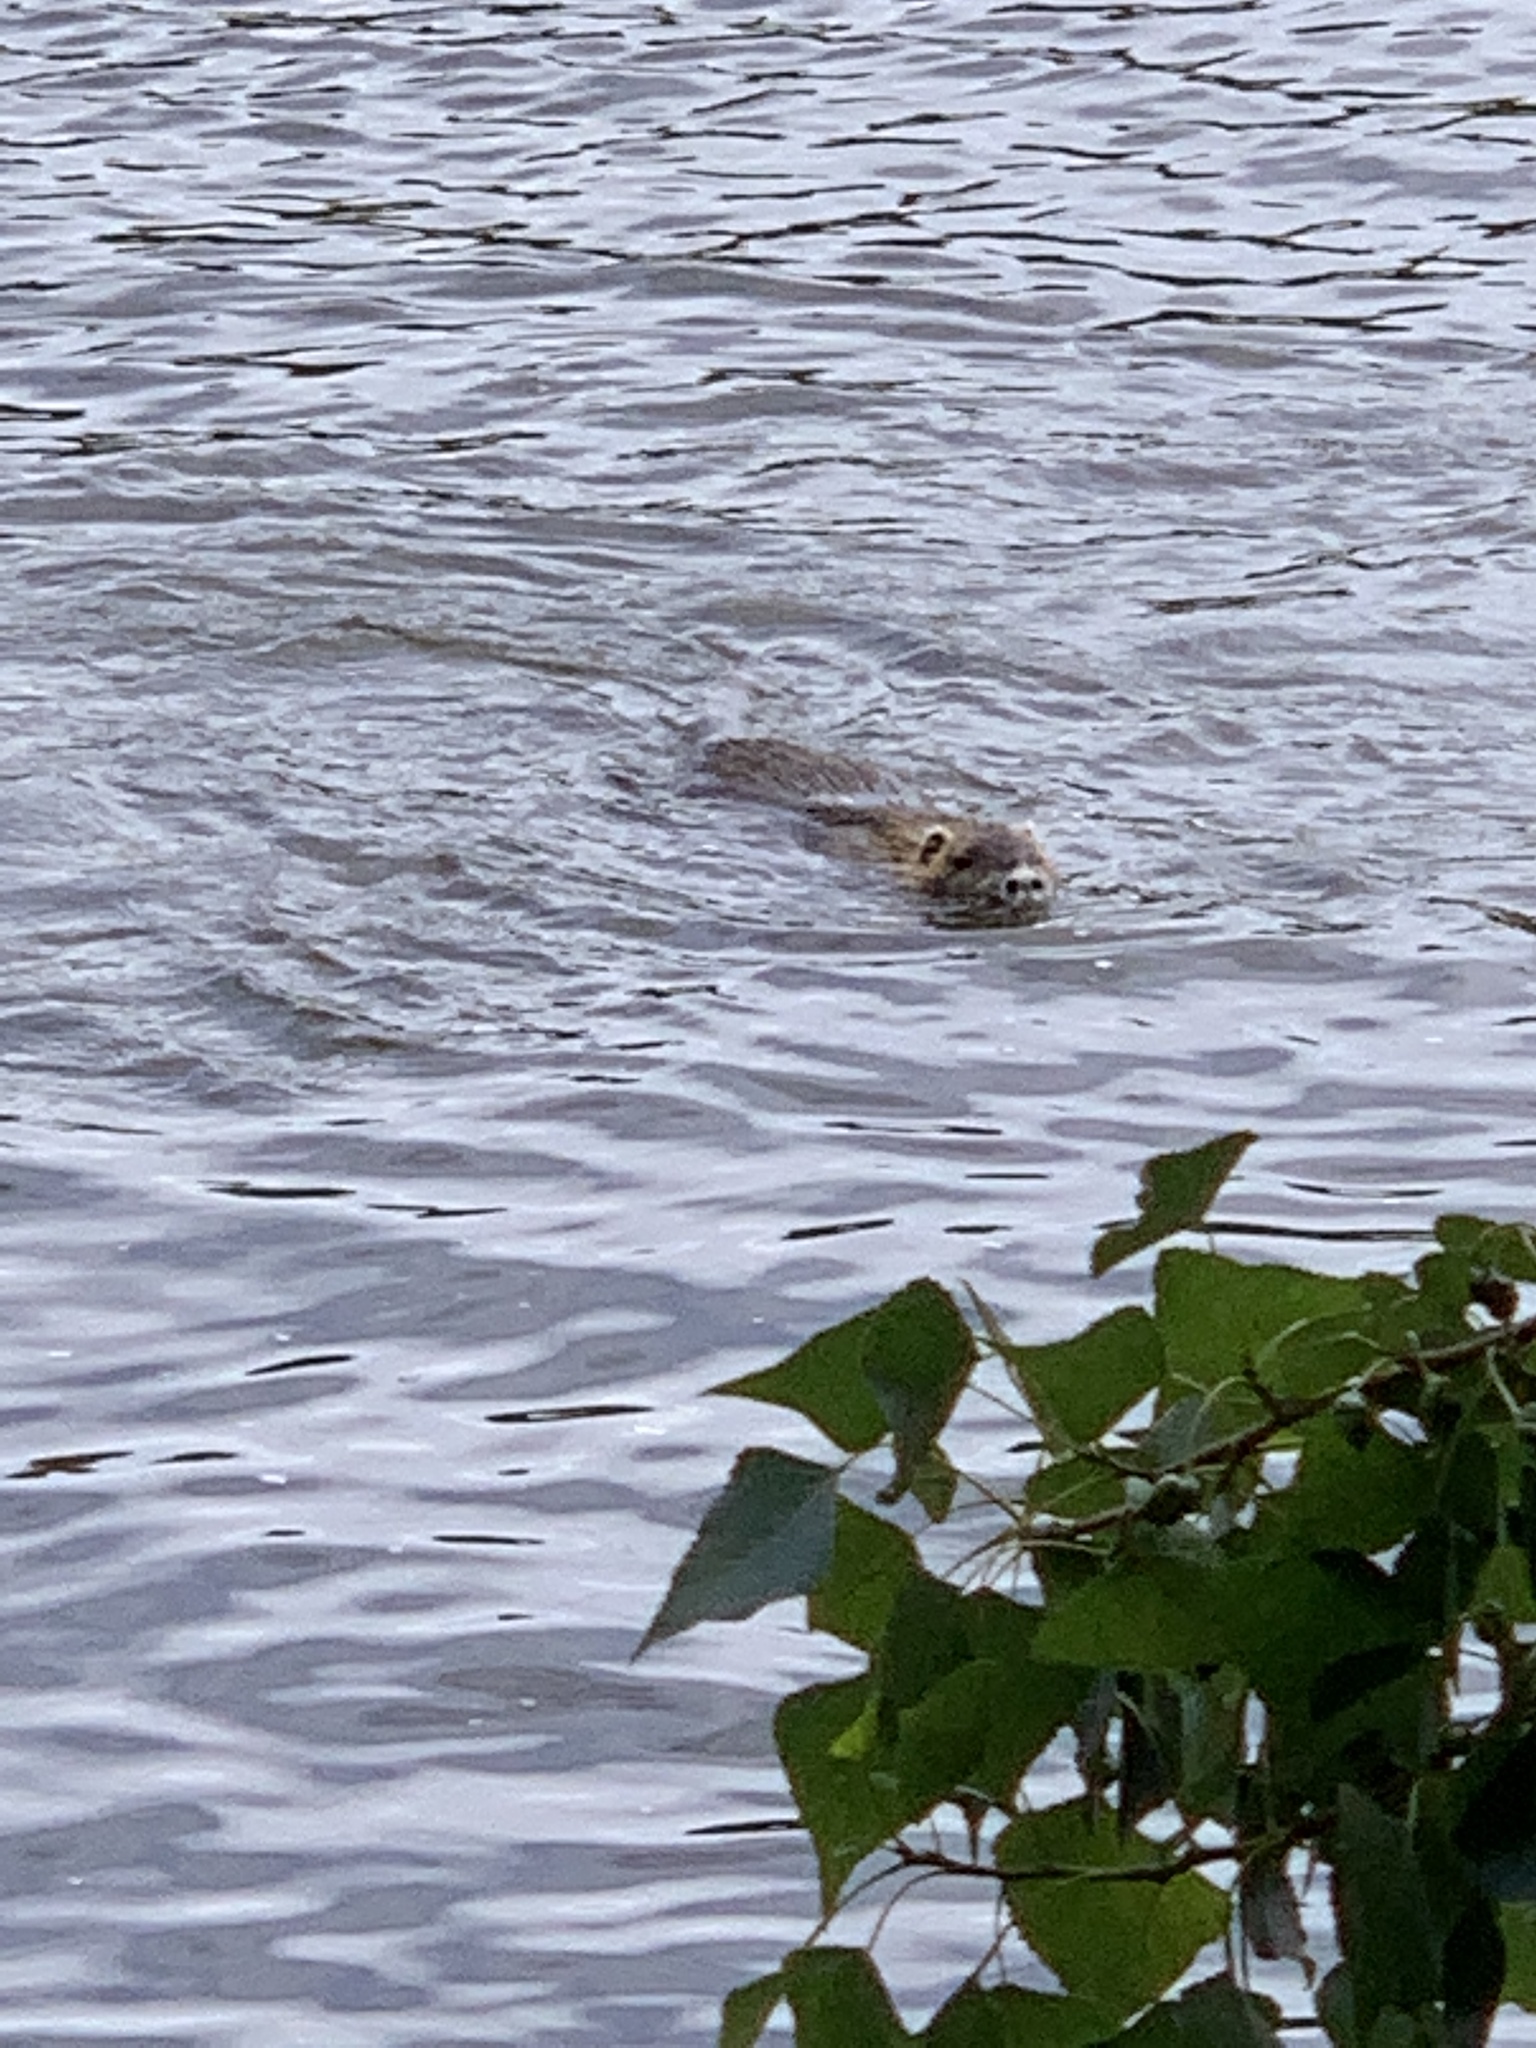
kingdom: Animalia
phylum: Chordata
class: Mammalia
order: Rodentia
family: Myocastoridae
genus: Myocastor
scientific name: Myocastor coypus
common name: Coypu
